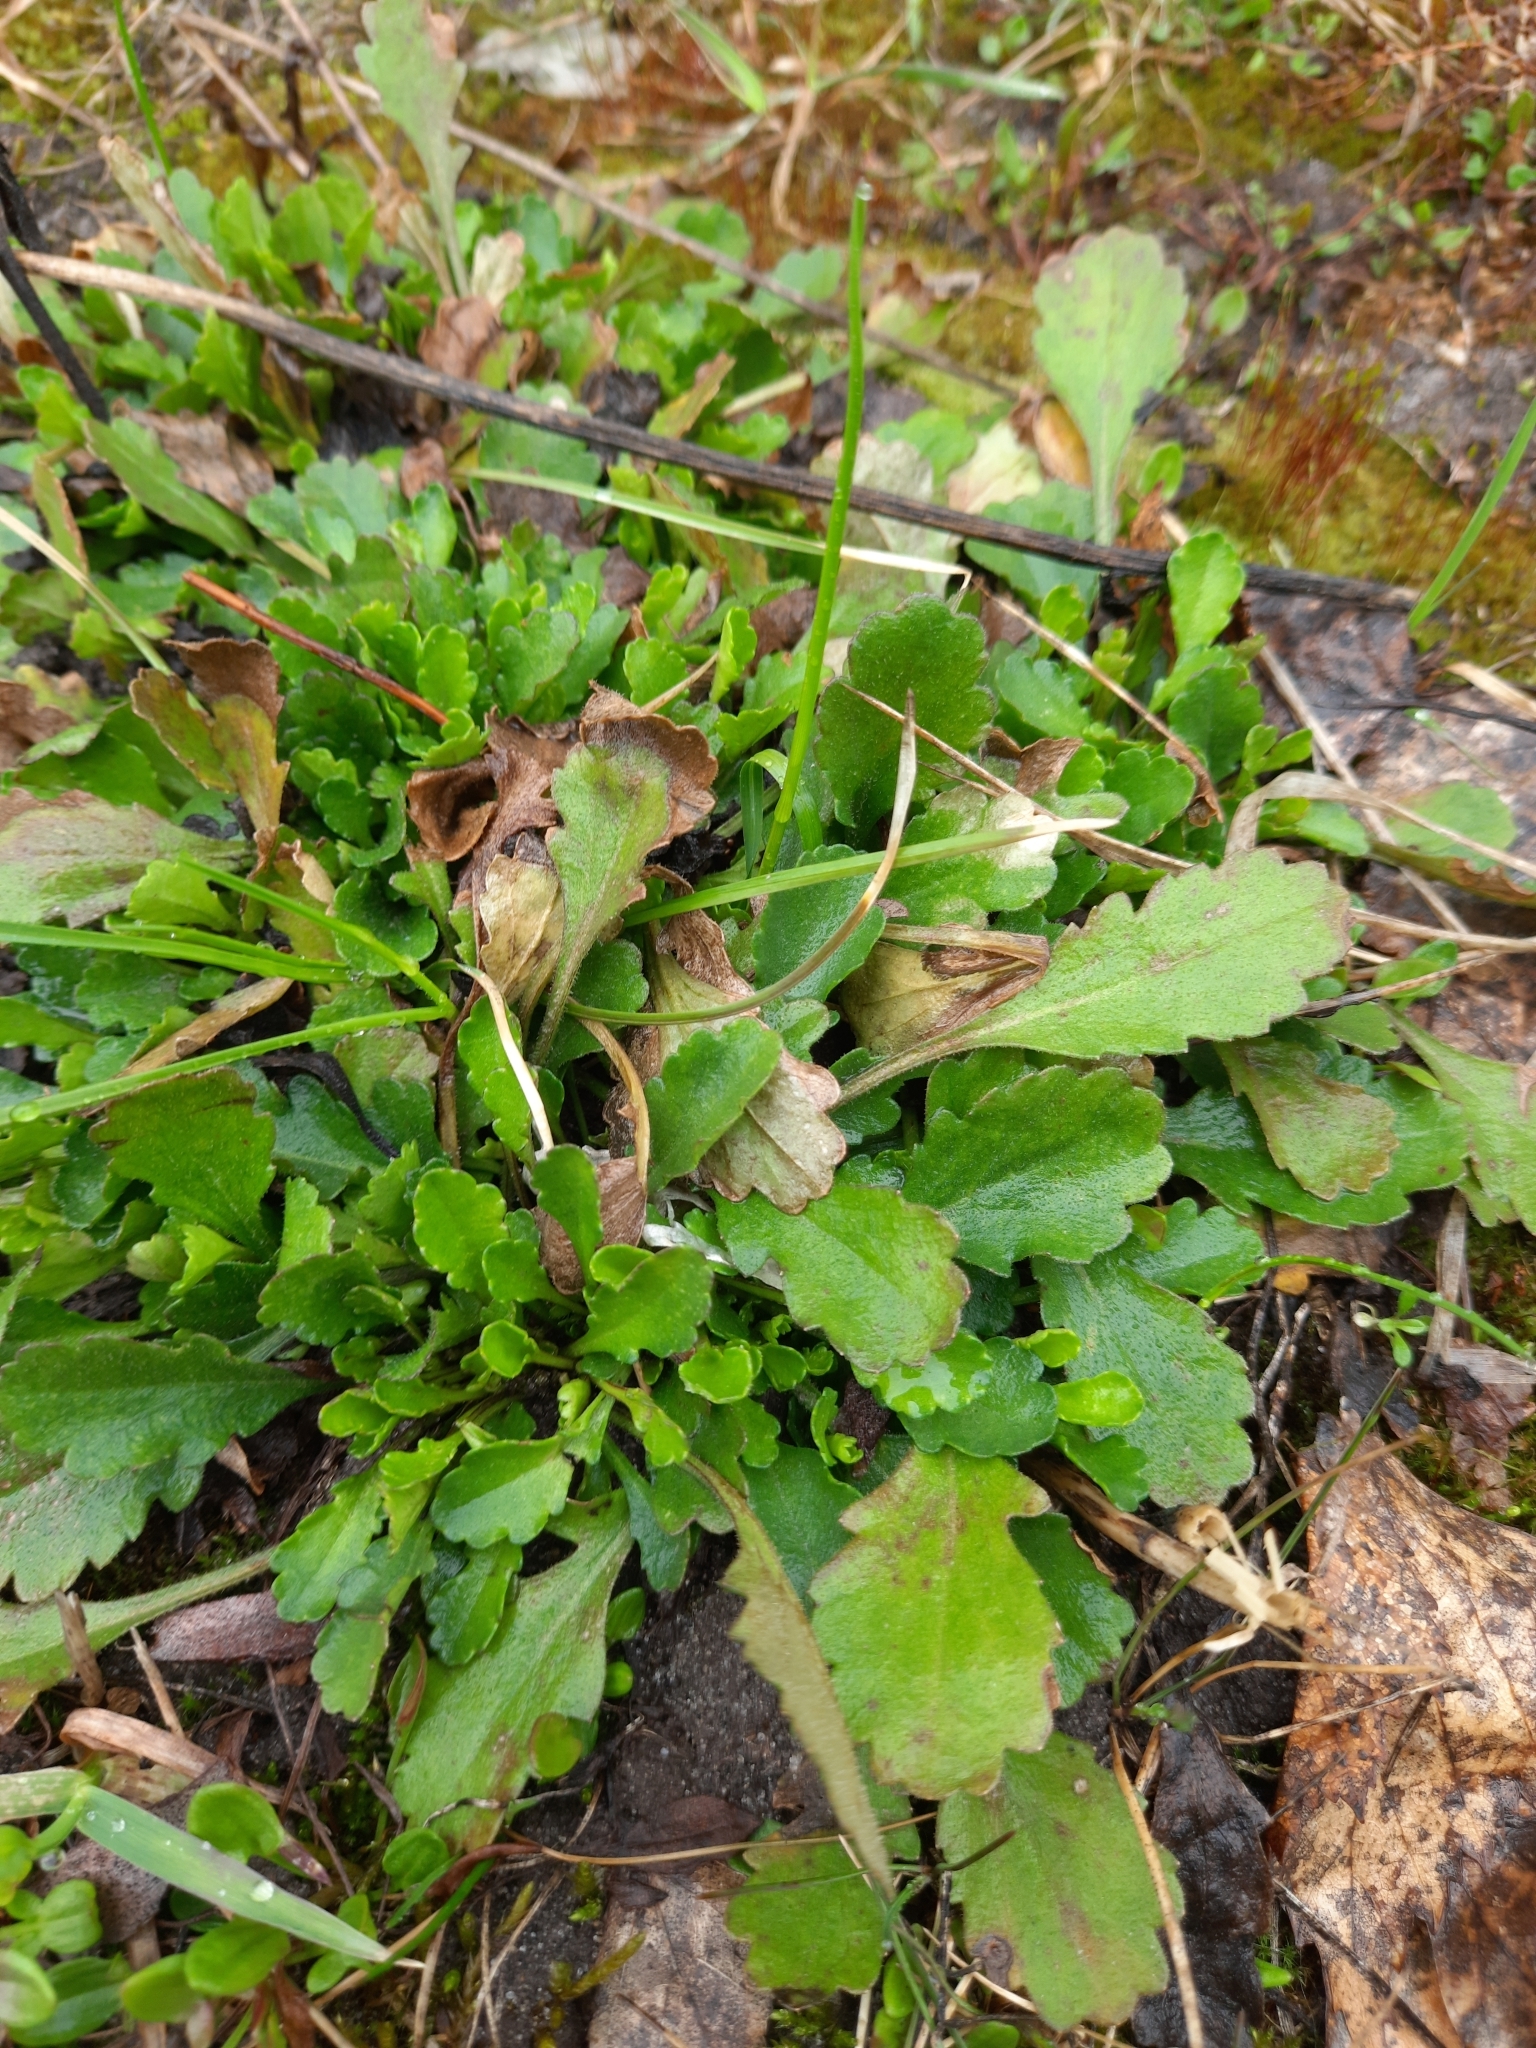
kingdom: Plantae
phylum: Tracheophyta
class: Magnoliopsida
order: Asterales
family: Asteraceae
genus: Leucanthemum
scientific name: Leucanthemum ircutianum
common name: Daisy
